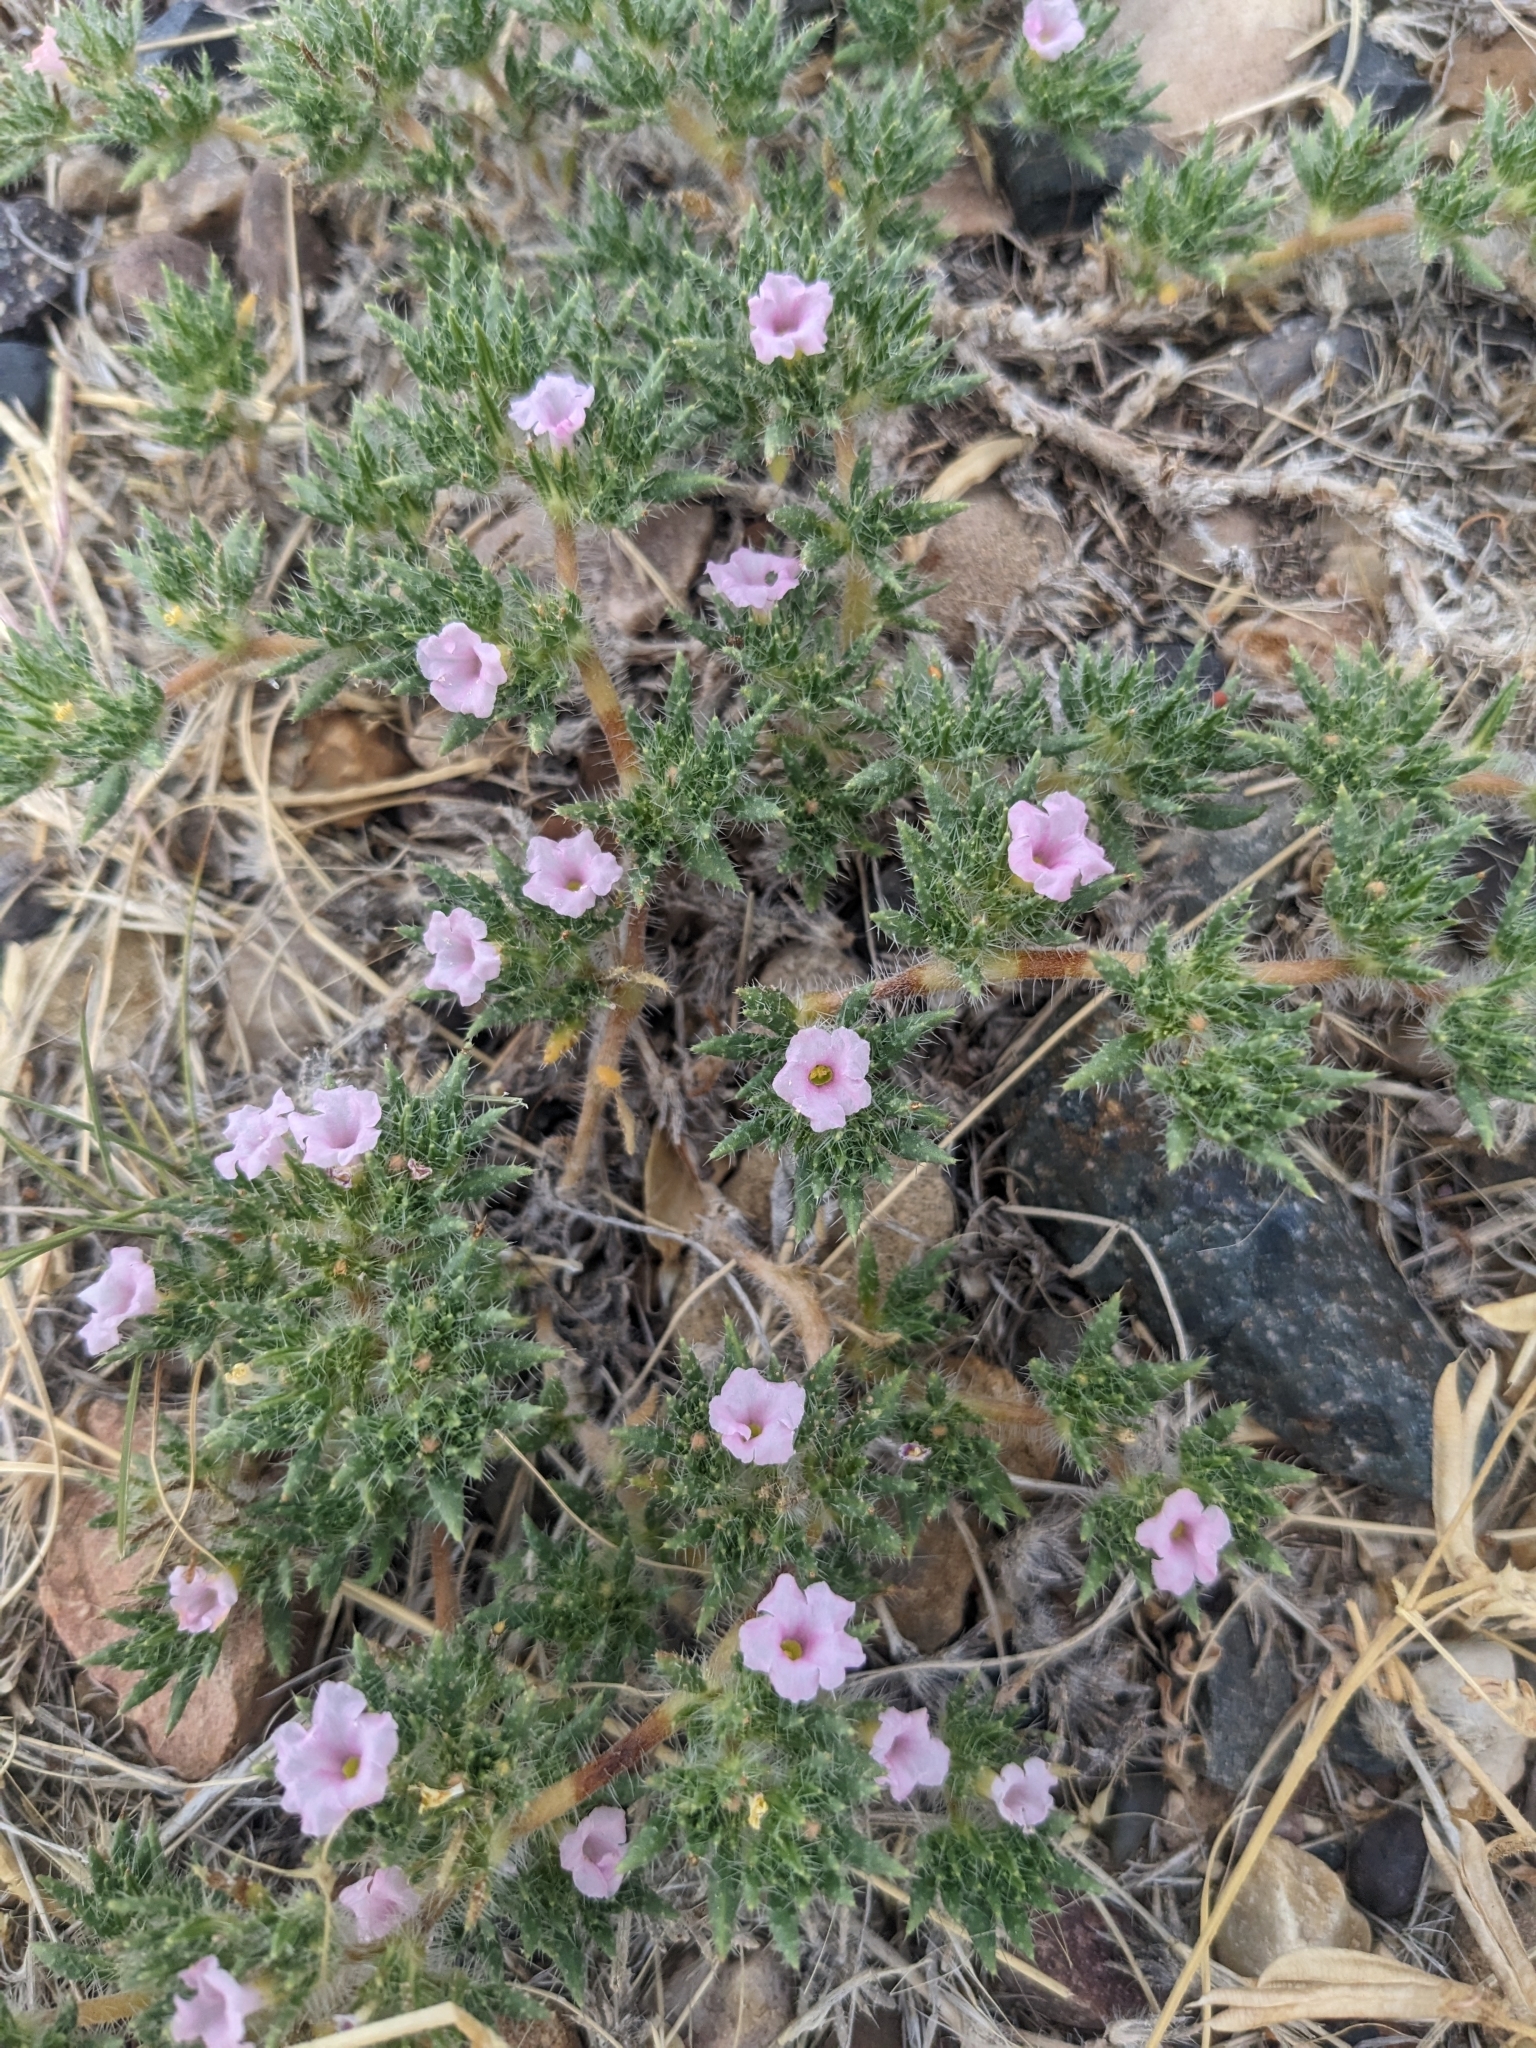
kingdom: Plantae
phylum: Tracheophyta
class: Magnoliopsida
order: Boraginales
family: Ehretiaceae
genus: Tiquilia
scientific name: Tiquilia latior
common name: Matted tiquilia
